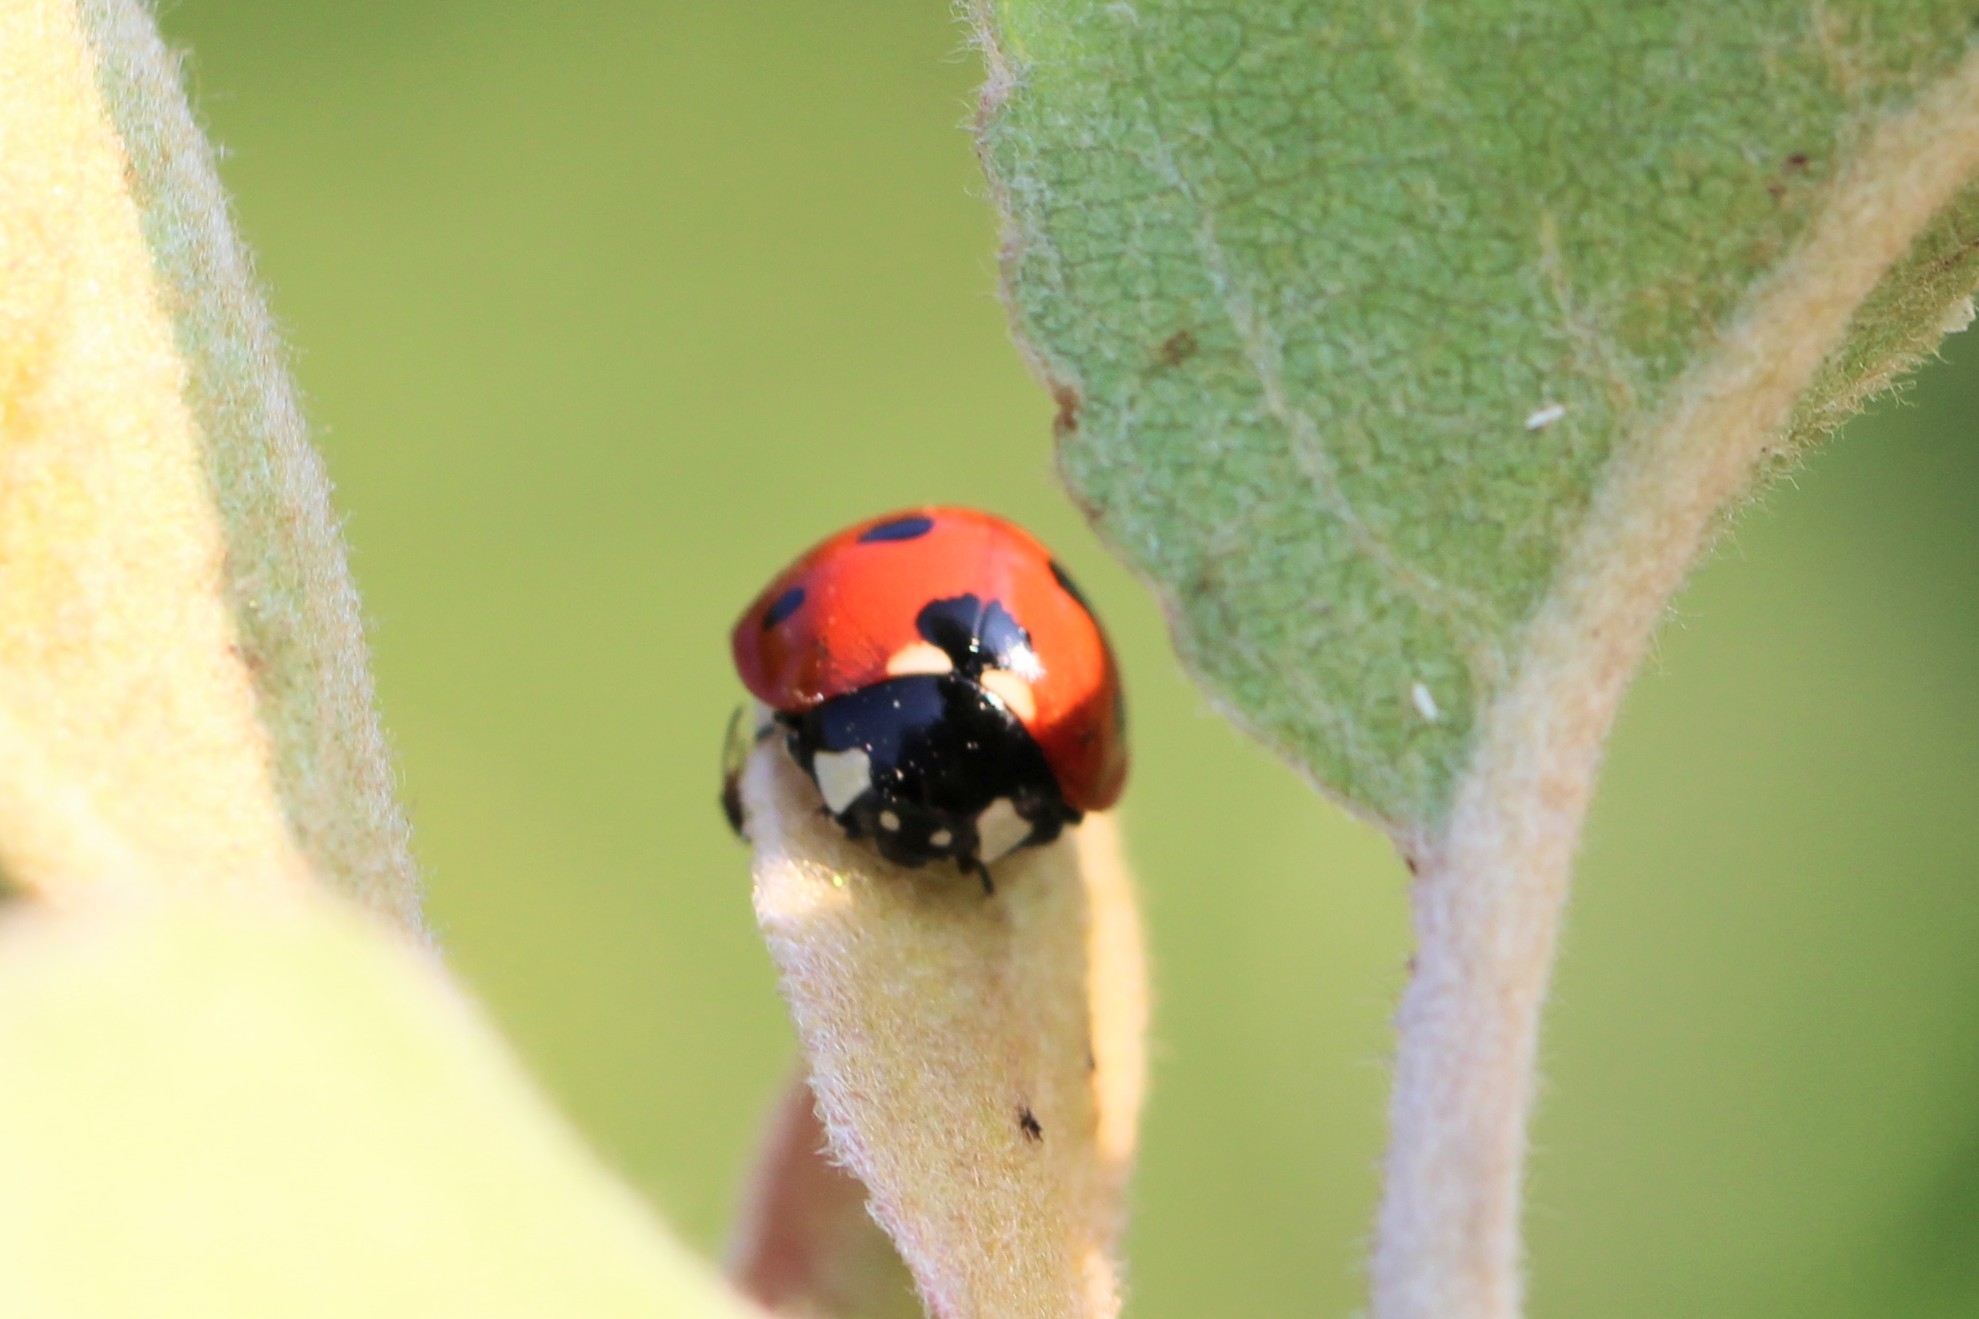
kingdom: Animalia
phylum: Arthropoda
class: Insecta
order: Coleoptera
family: Coccinellidae
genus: Coccinella
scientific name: Coccinella septempunctata
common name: Sevenspotted lady beetle
